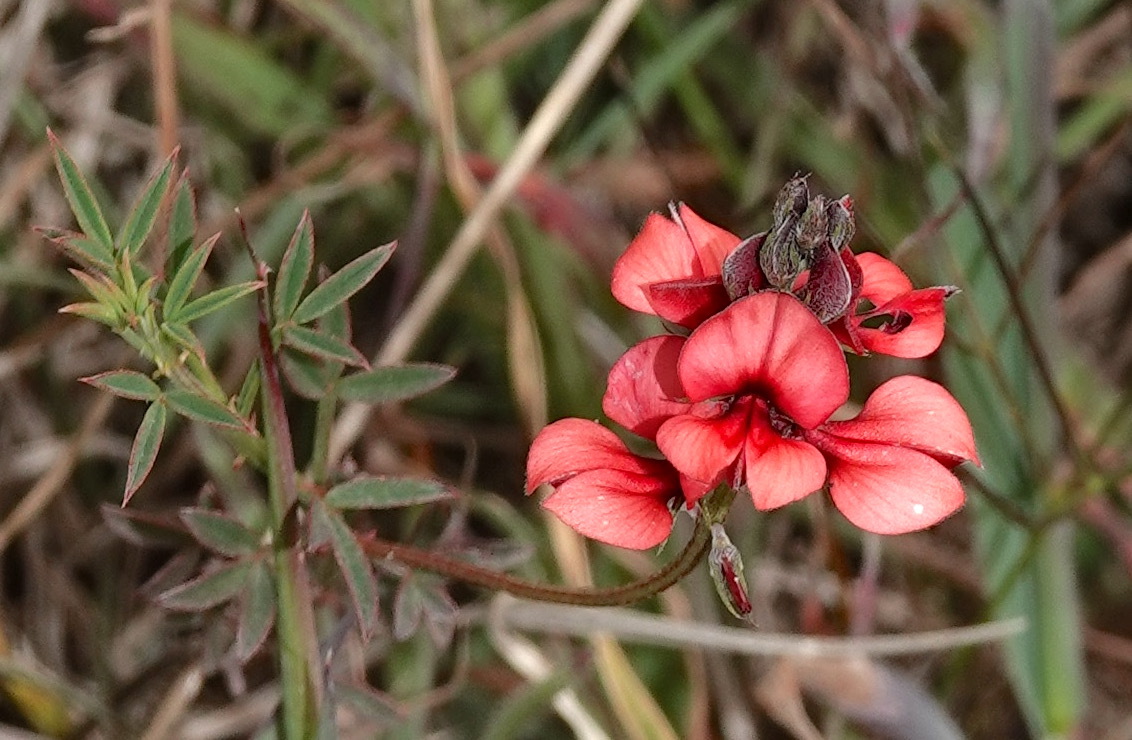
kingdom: Plantae
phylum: Tracheophyta
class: Magnoliopsida
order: Fabales
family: Fabaceae
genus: Indigofera
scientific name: Indigofera heterophylla
